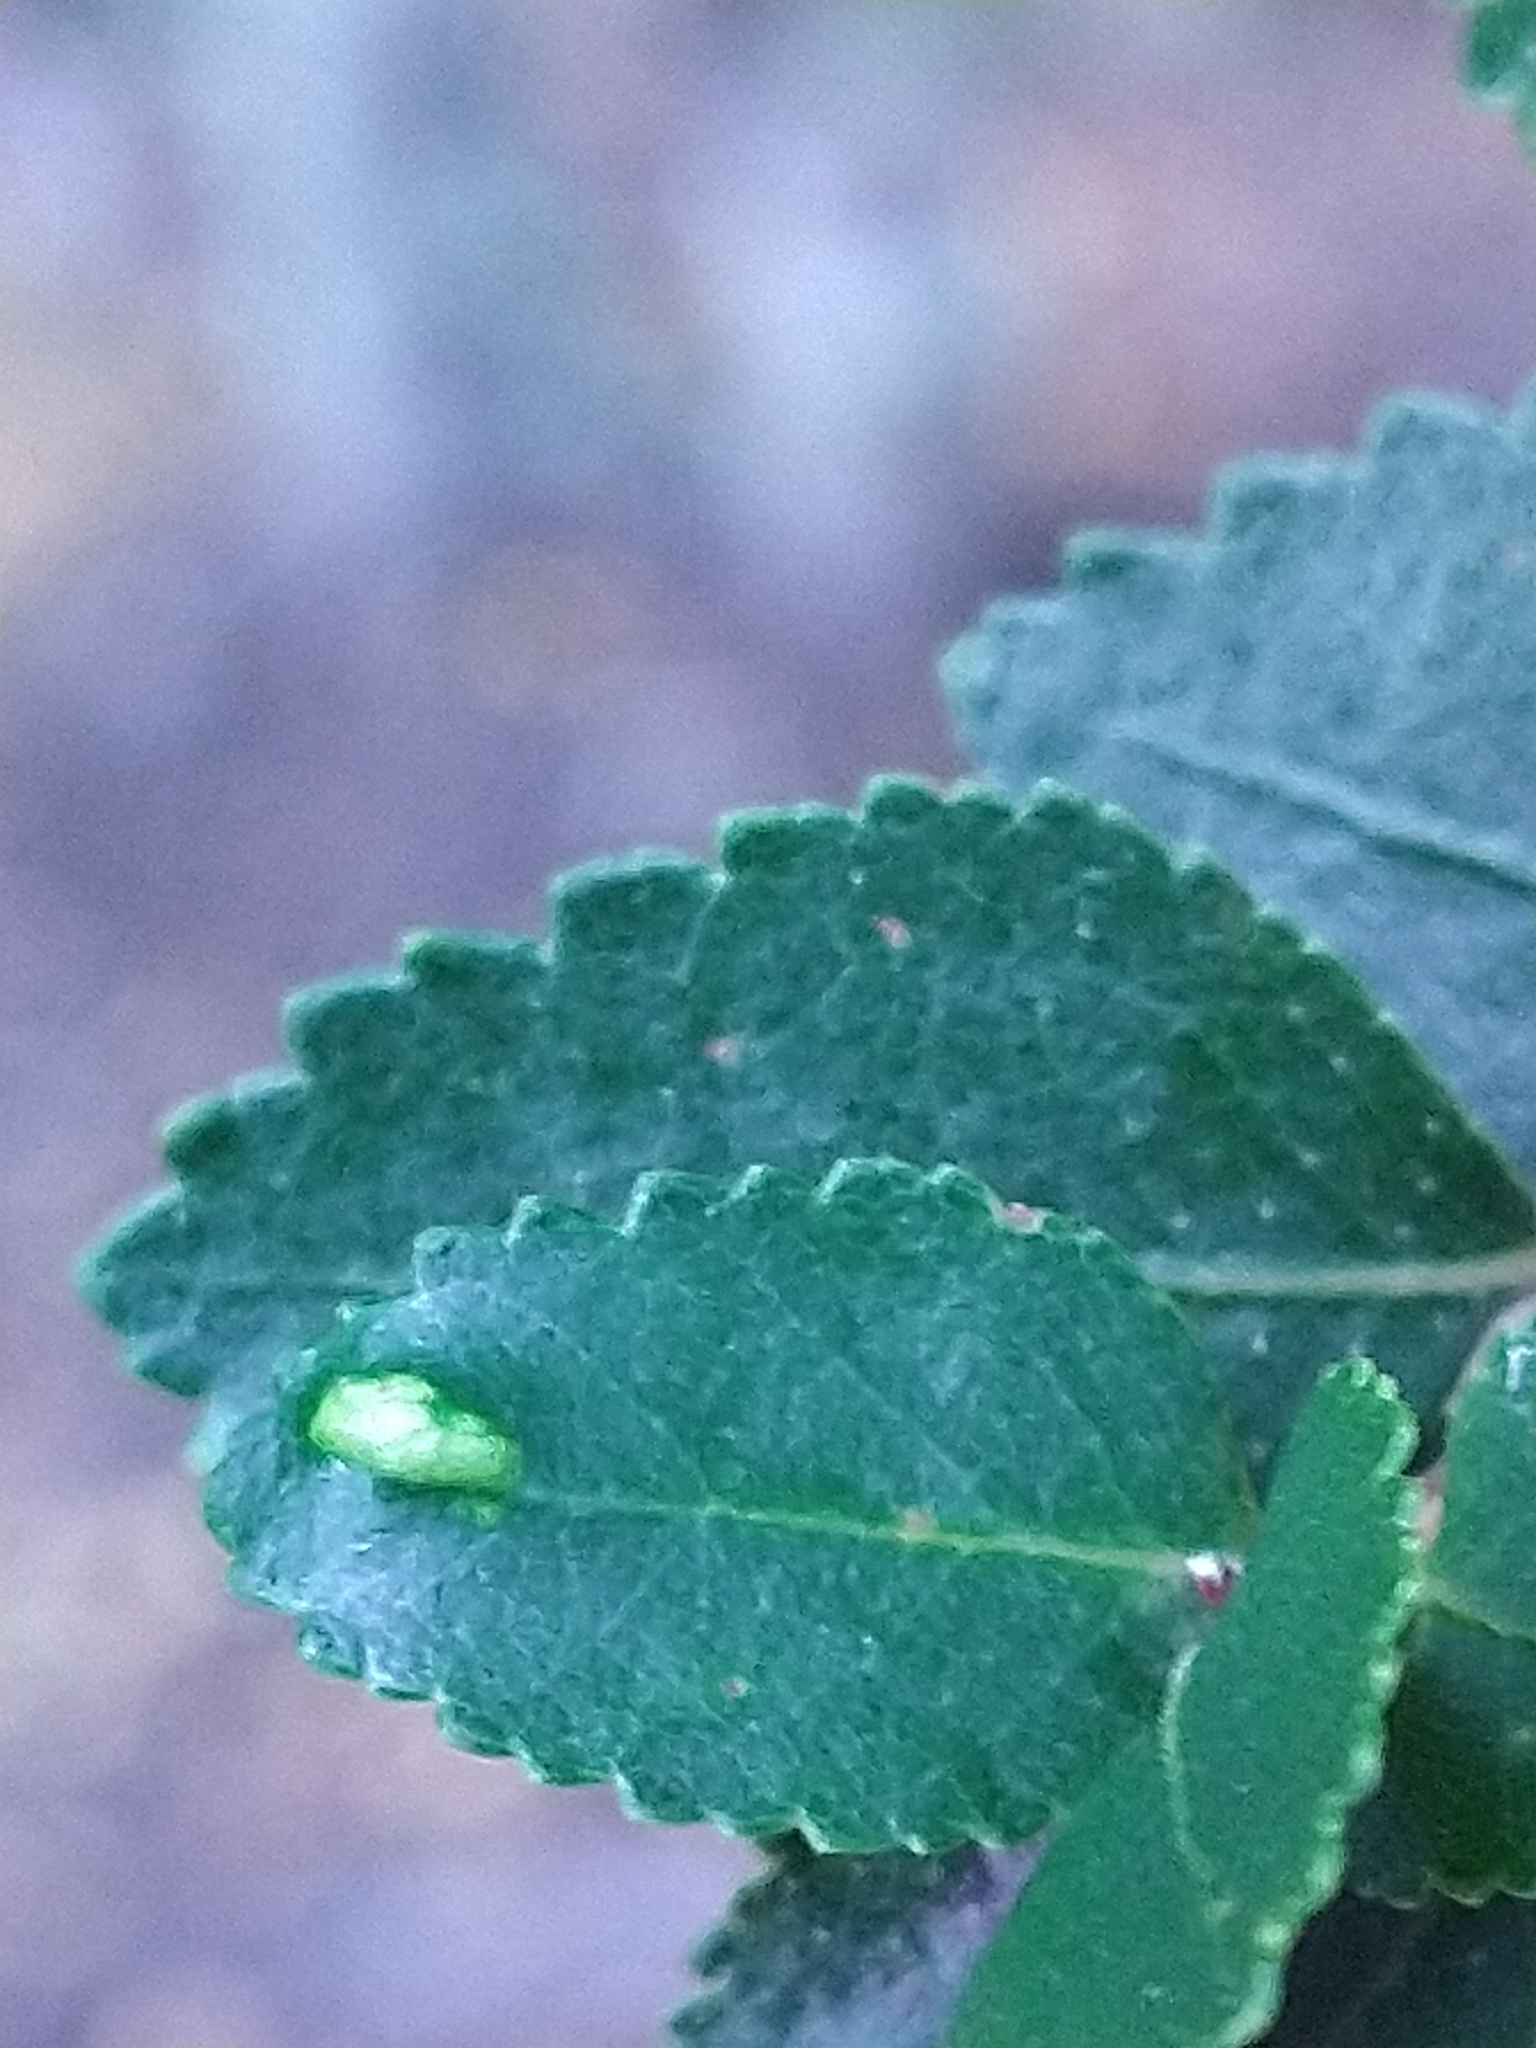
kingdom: Plantae
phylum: Tracheophyta
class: Magnoliopsida
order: Fagales
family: Nothofagaceae
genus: Nothofagus
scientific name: Nothofagus betuloides
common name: Magellan's beech
